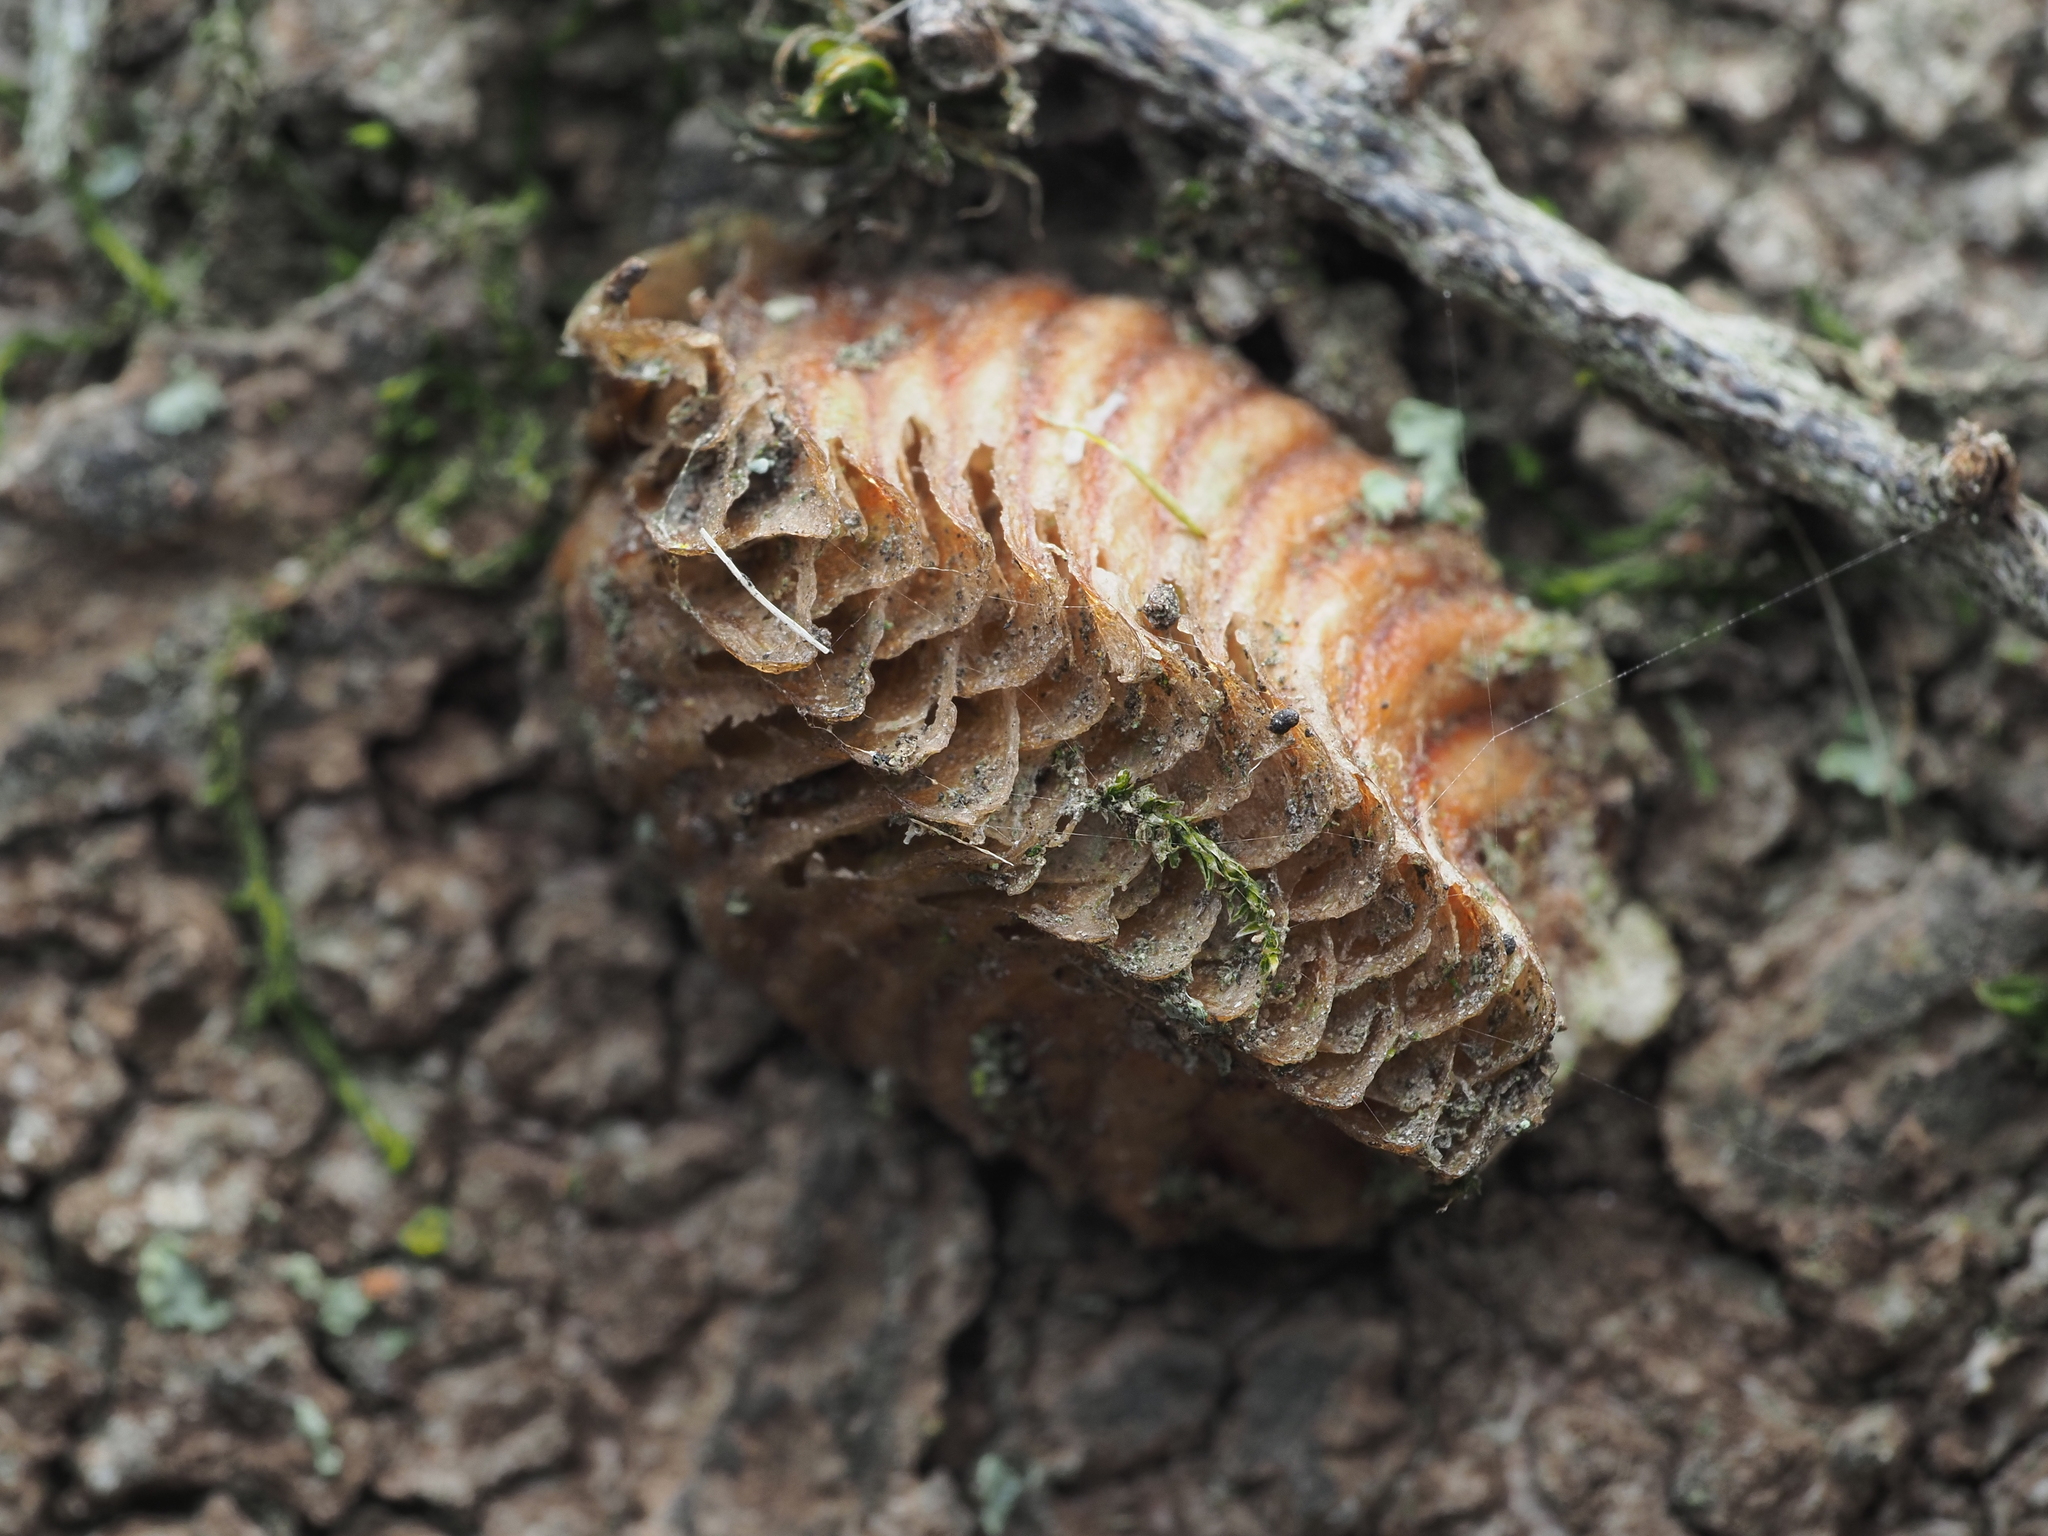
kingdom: Animalia
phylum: Arthropoda
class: Insecta
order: Mantodea
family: Miomantidae
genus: Miomantis
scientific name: Miomantis caffra
